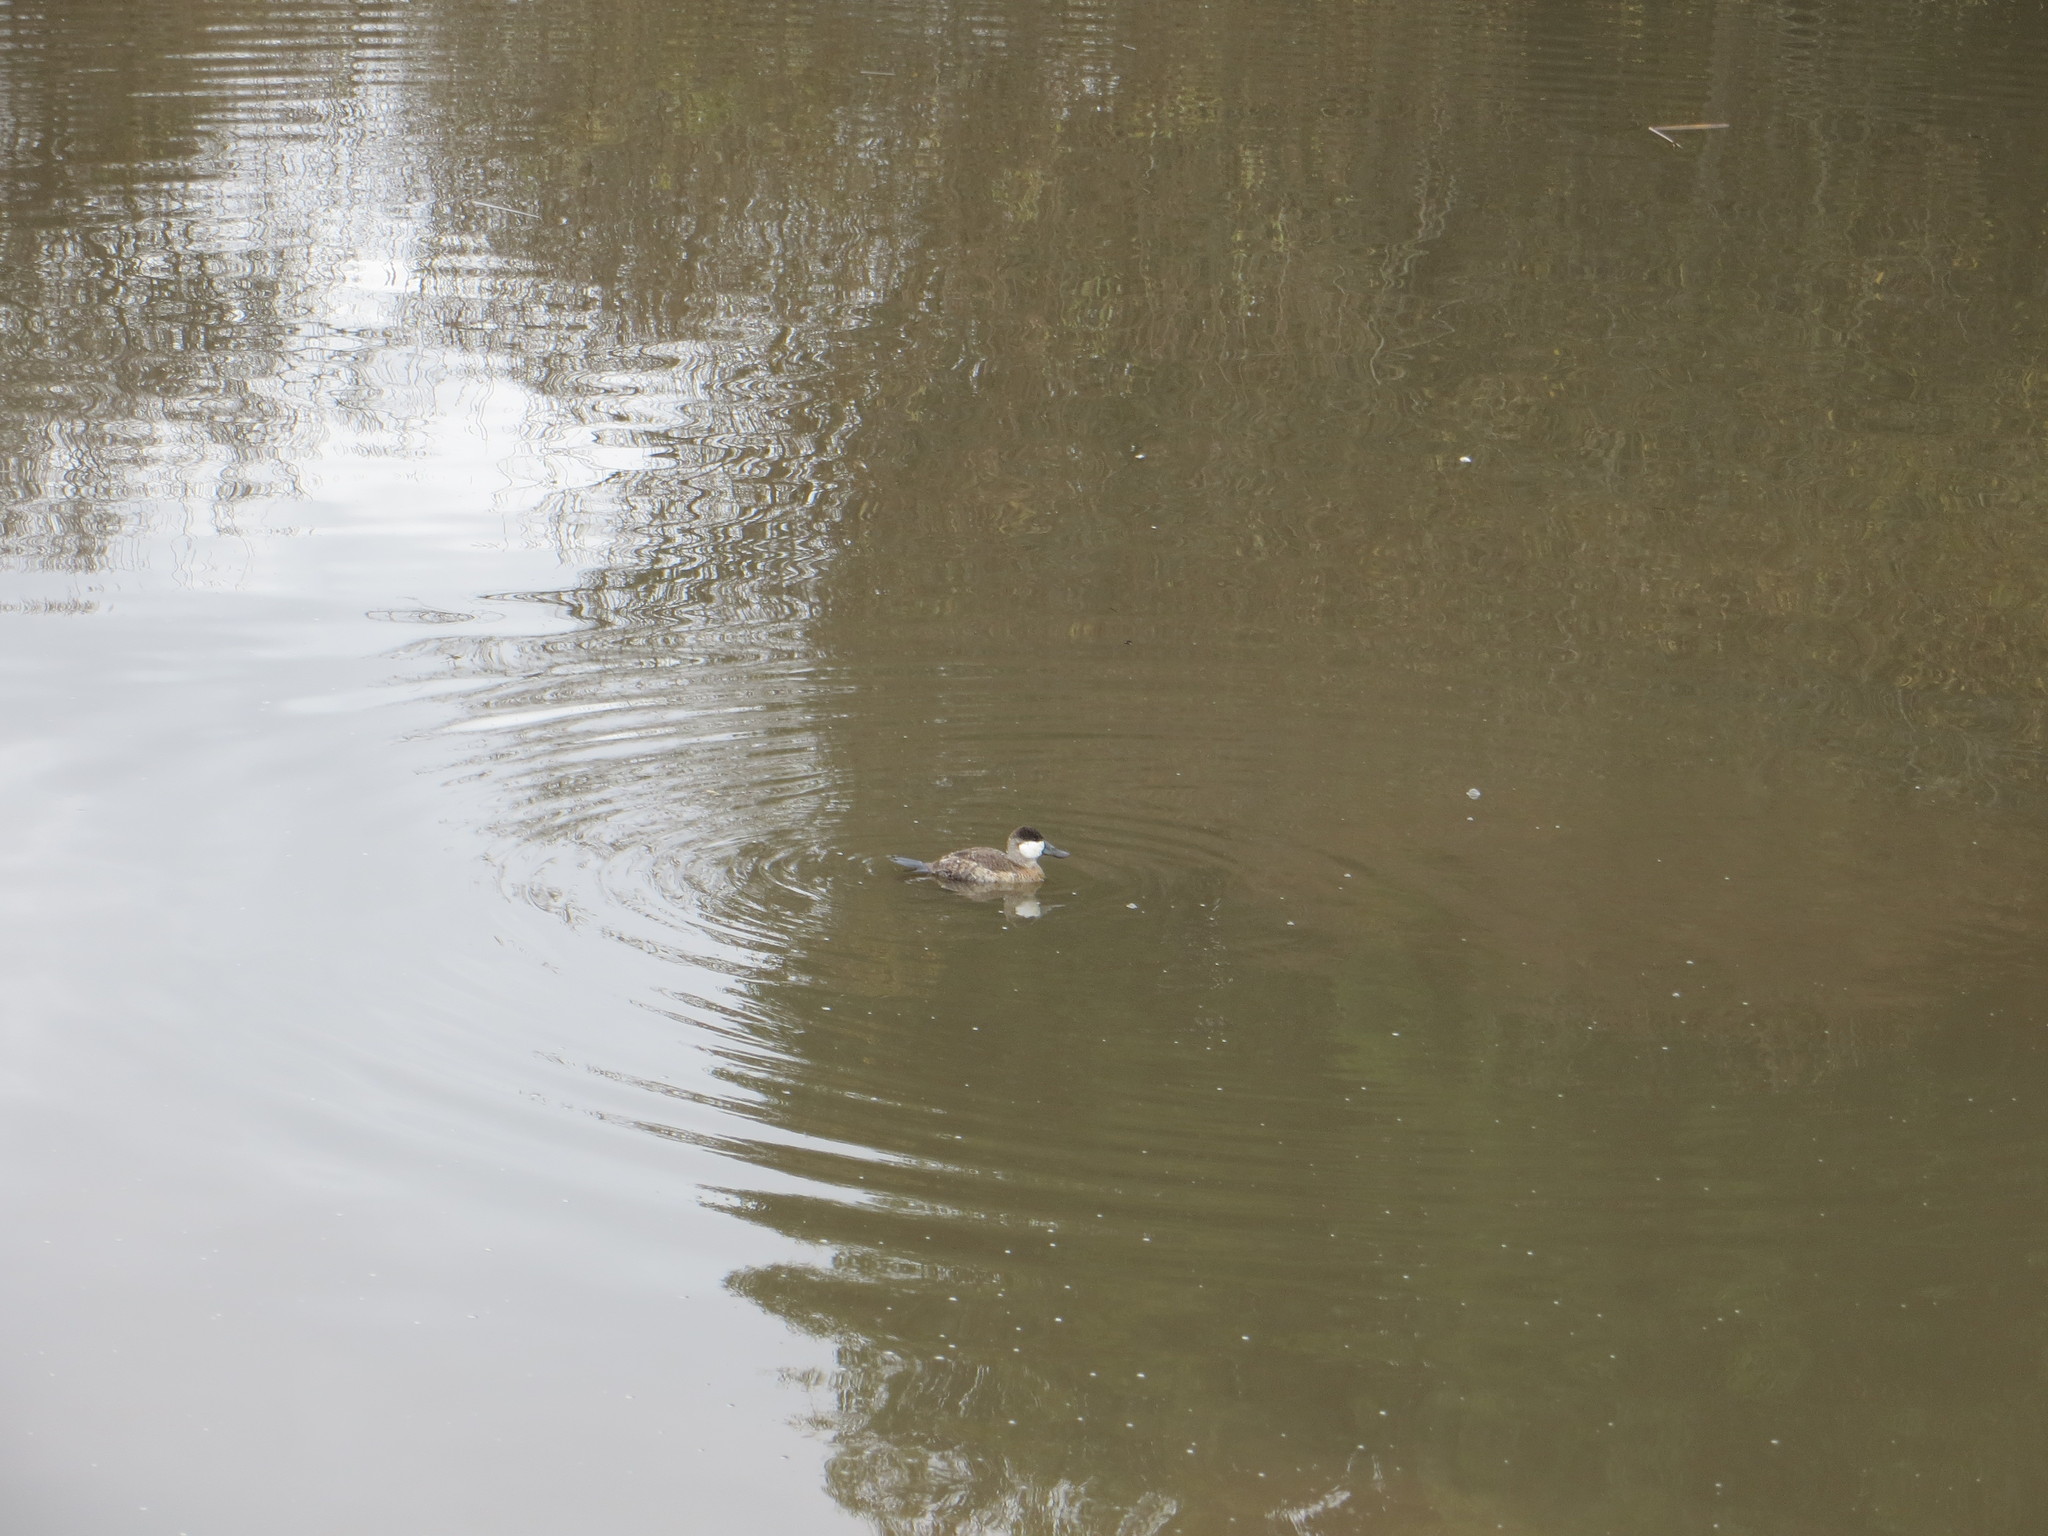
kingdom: Animalia
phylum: Chordata
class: Aves
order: Anseriformes
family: Anatidae
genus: Oxyura
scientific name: Oxyura jamaicensis
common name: Ruddy duck
